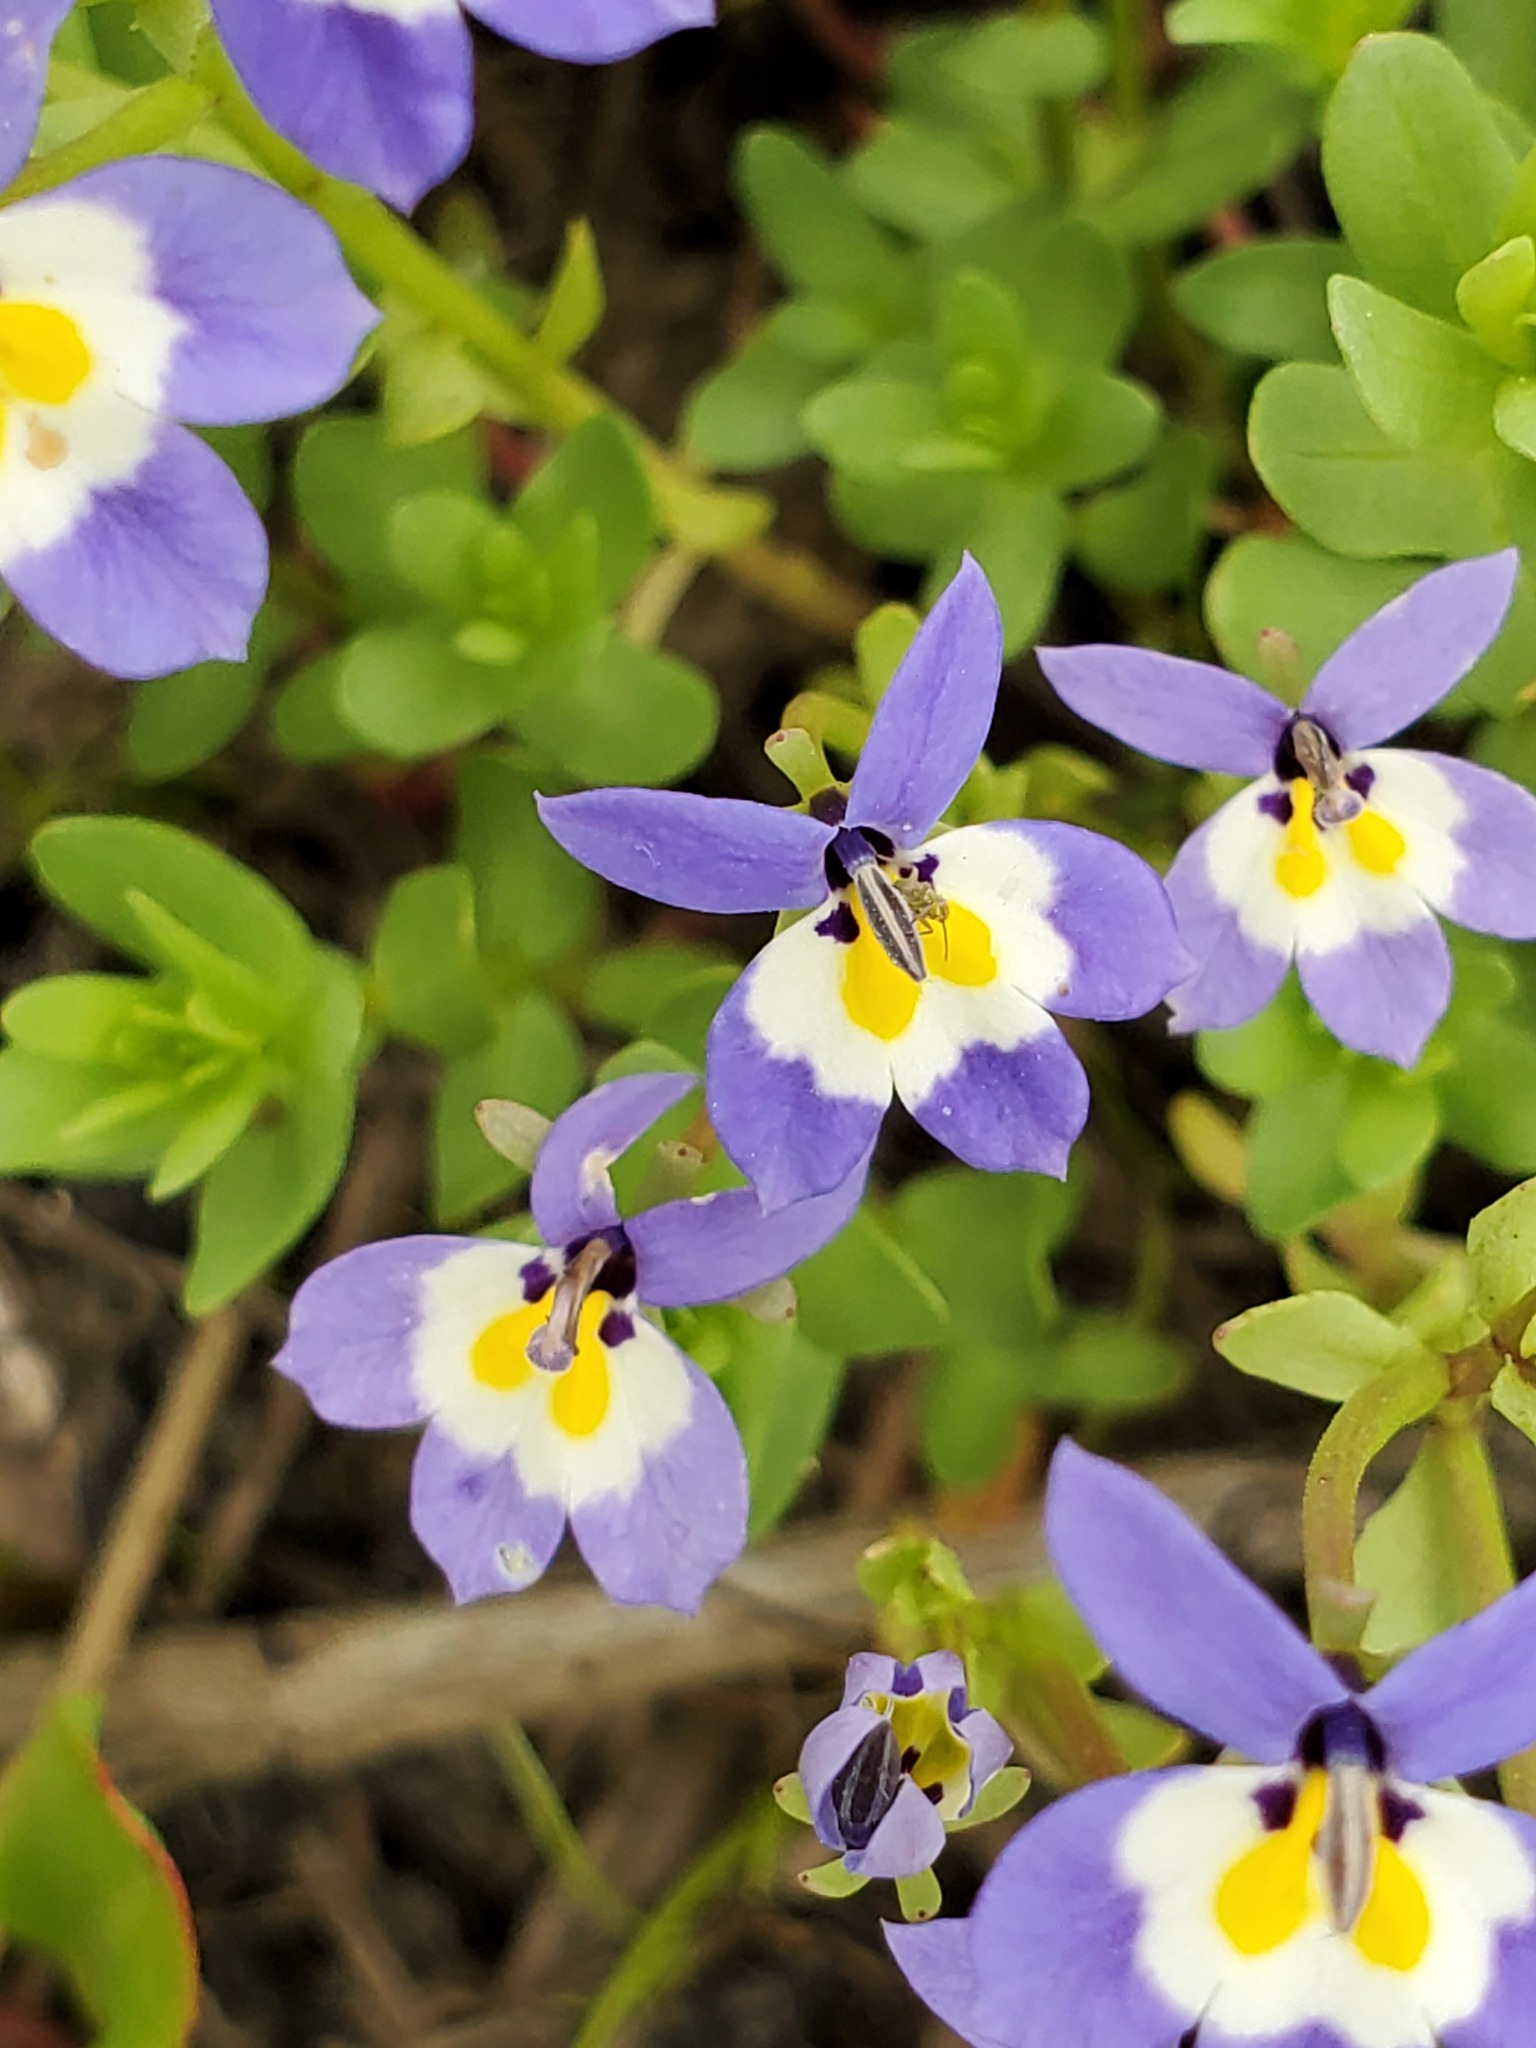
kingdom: Plantae
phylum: Tracheophyta
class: Magnoliopsida
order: Asterales
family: Campanulaceae
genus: Downingia
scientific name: Downingia pulchella
